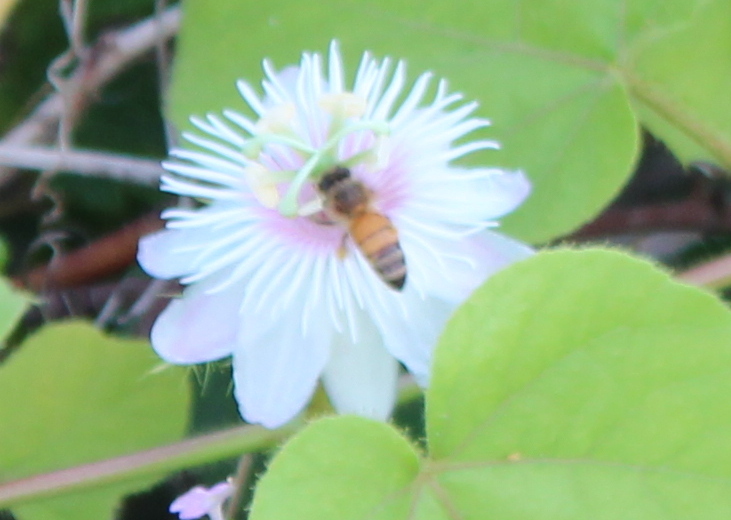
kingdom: Animalia
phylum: Arthropoda
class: Insecta
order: Hymenoptera
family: Apidae
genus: Apis
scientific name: Apis mellifera
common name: Honey bee
